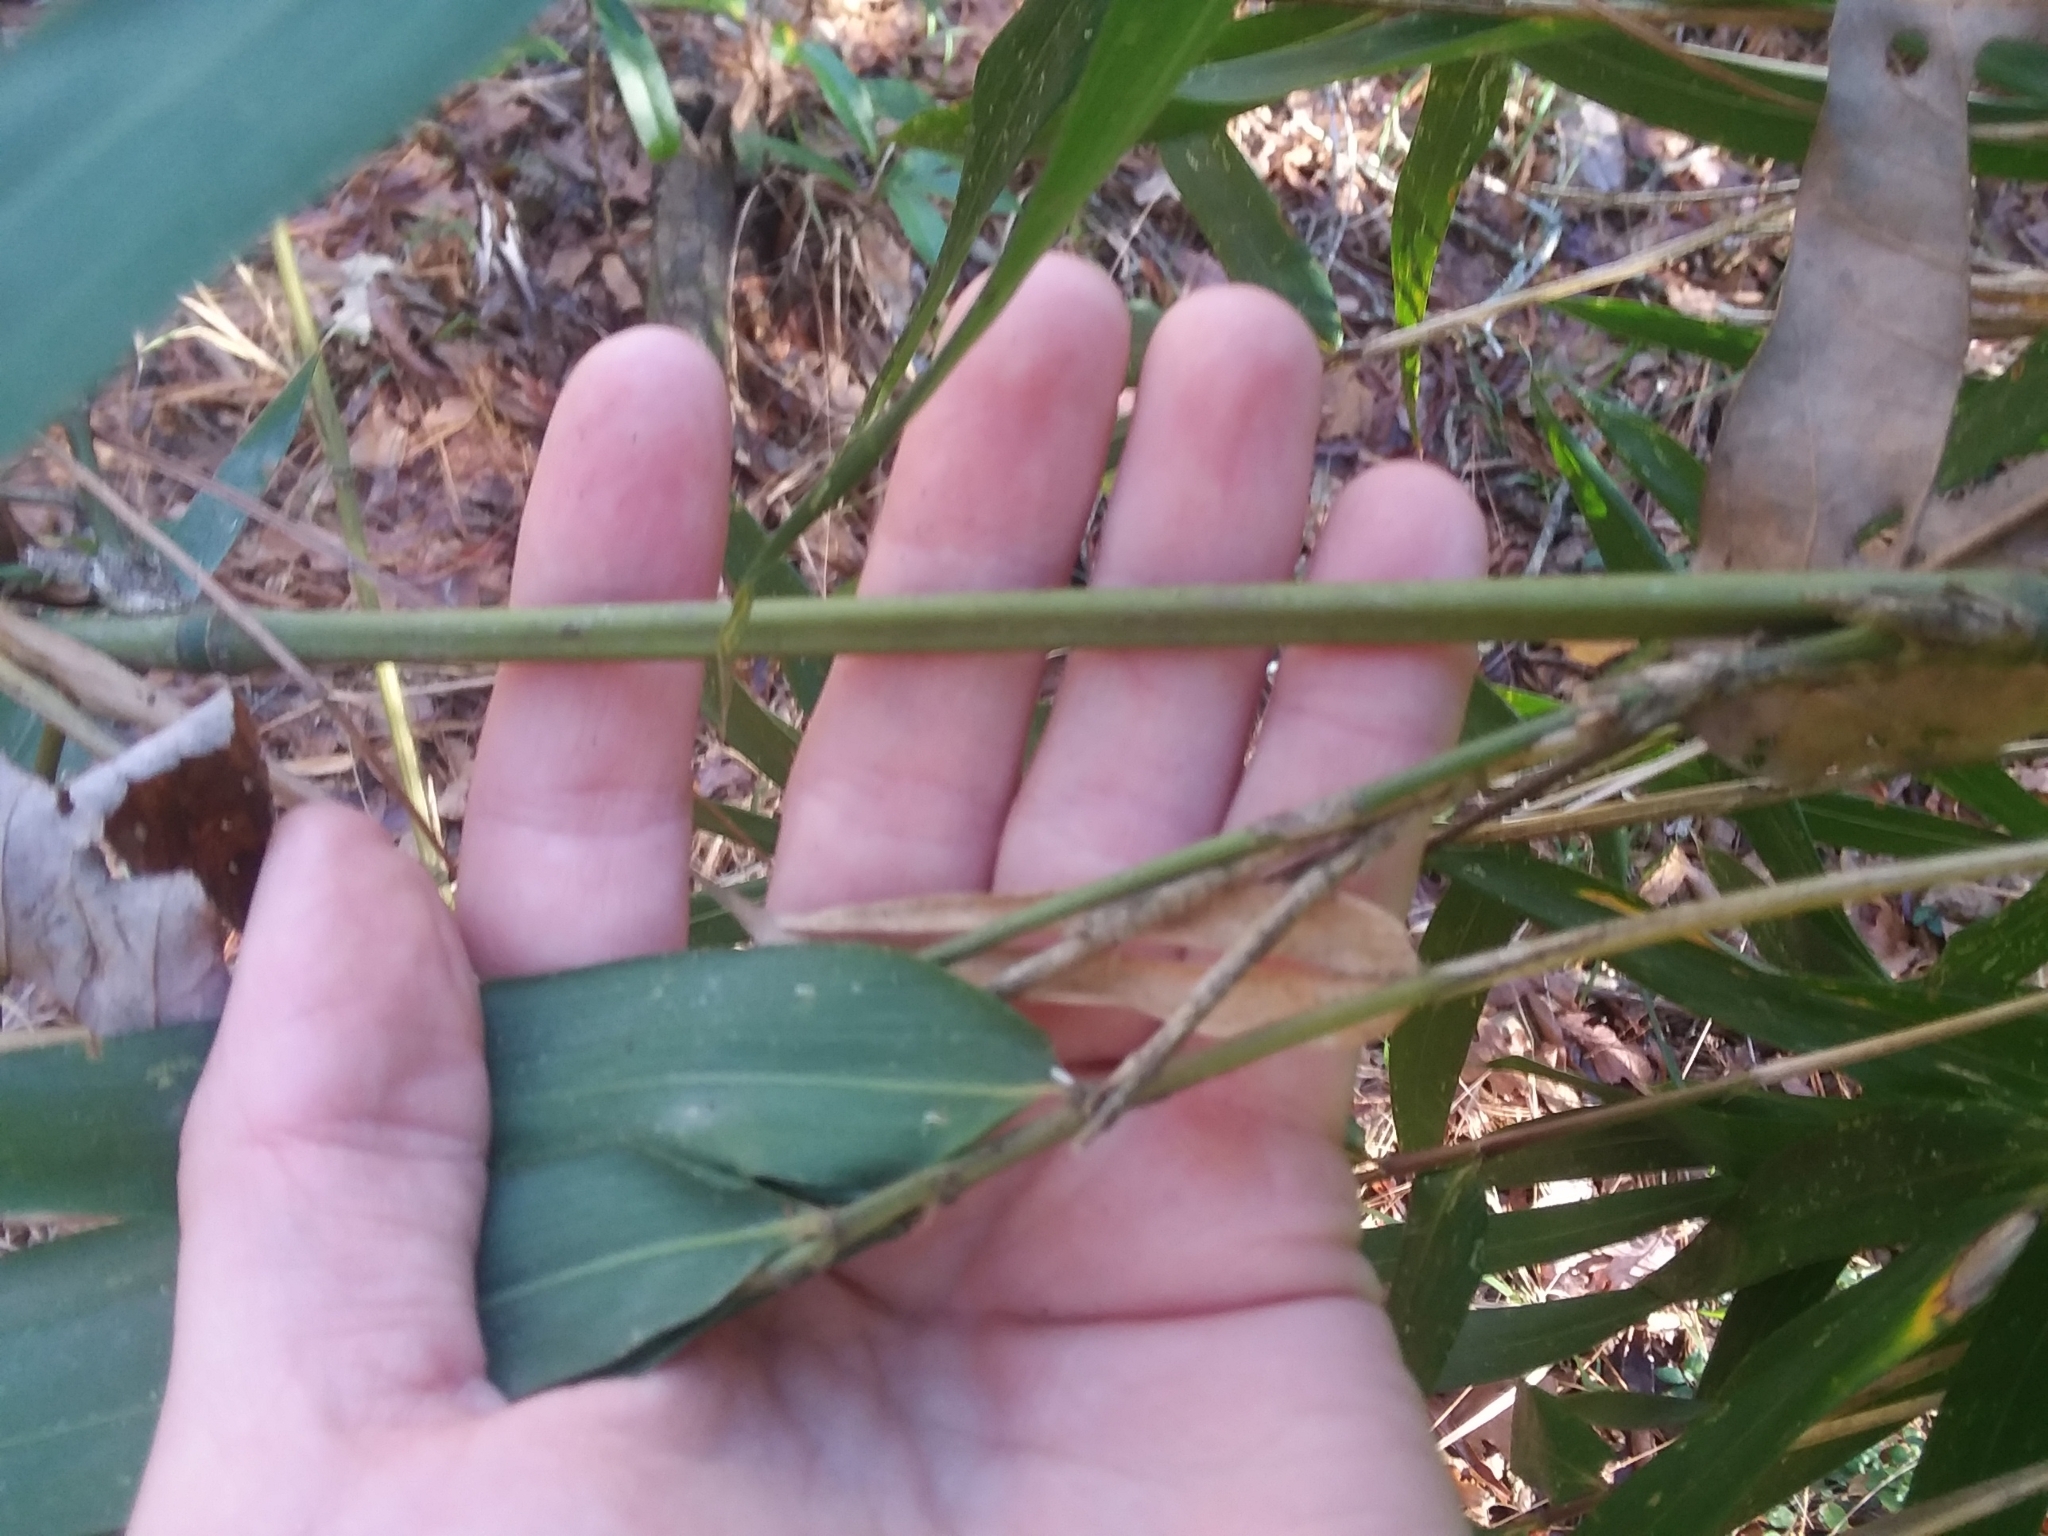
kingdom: Plantae
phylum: Tracheophyta
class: Liliopsida
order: Poales
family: Poaceae
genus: Arundinaria
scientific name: Arundinaria gigantea
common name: Giant cane
